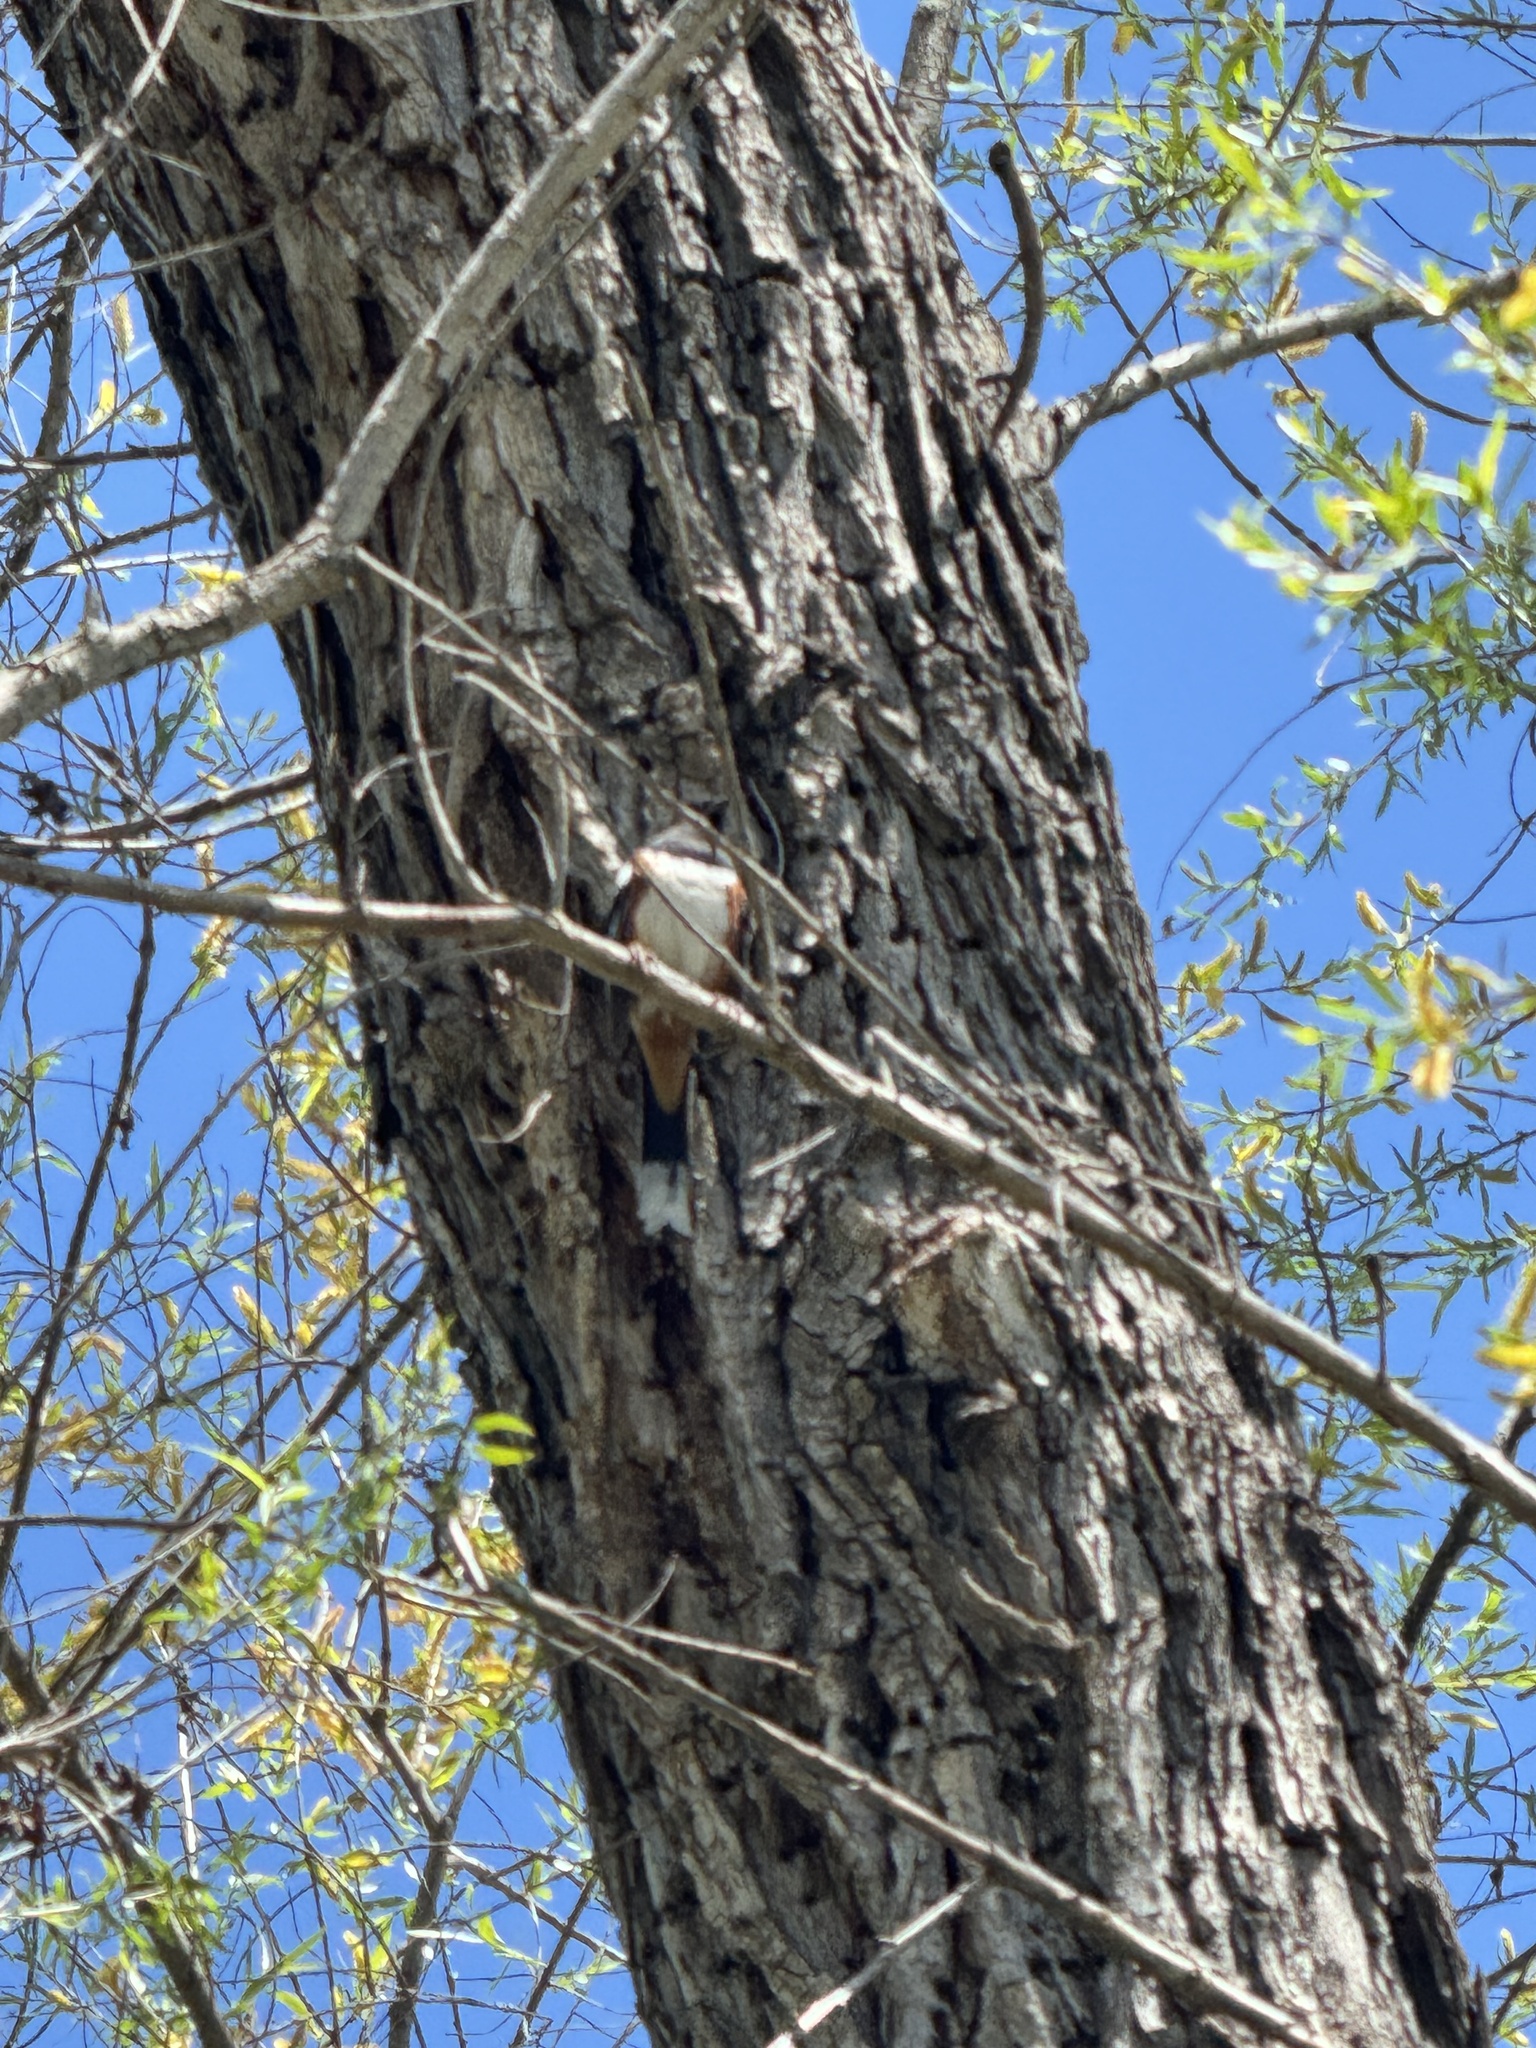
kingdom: Animalia
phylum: Chordata
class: Aves
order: Passeriformes
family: Passerellidae
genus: Pipilo
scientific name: Pipilo maculatus
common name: Spotted towhee
